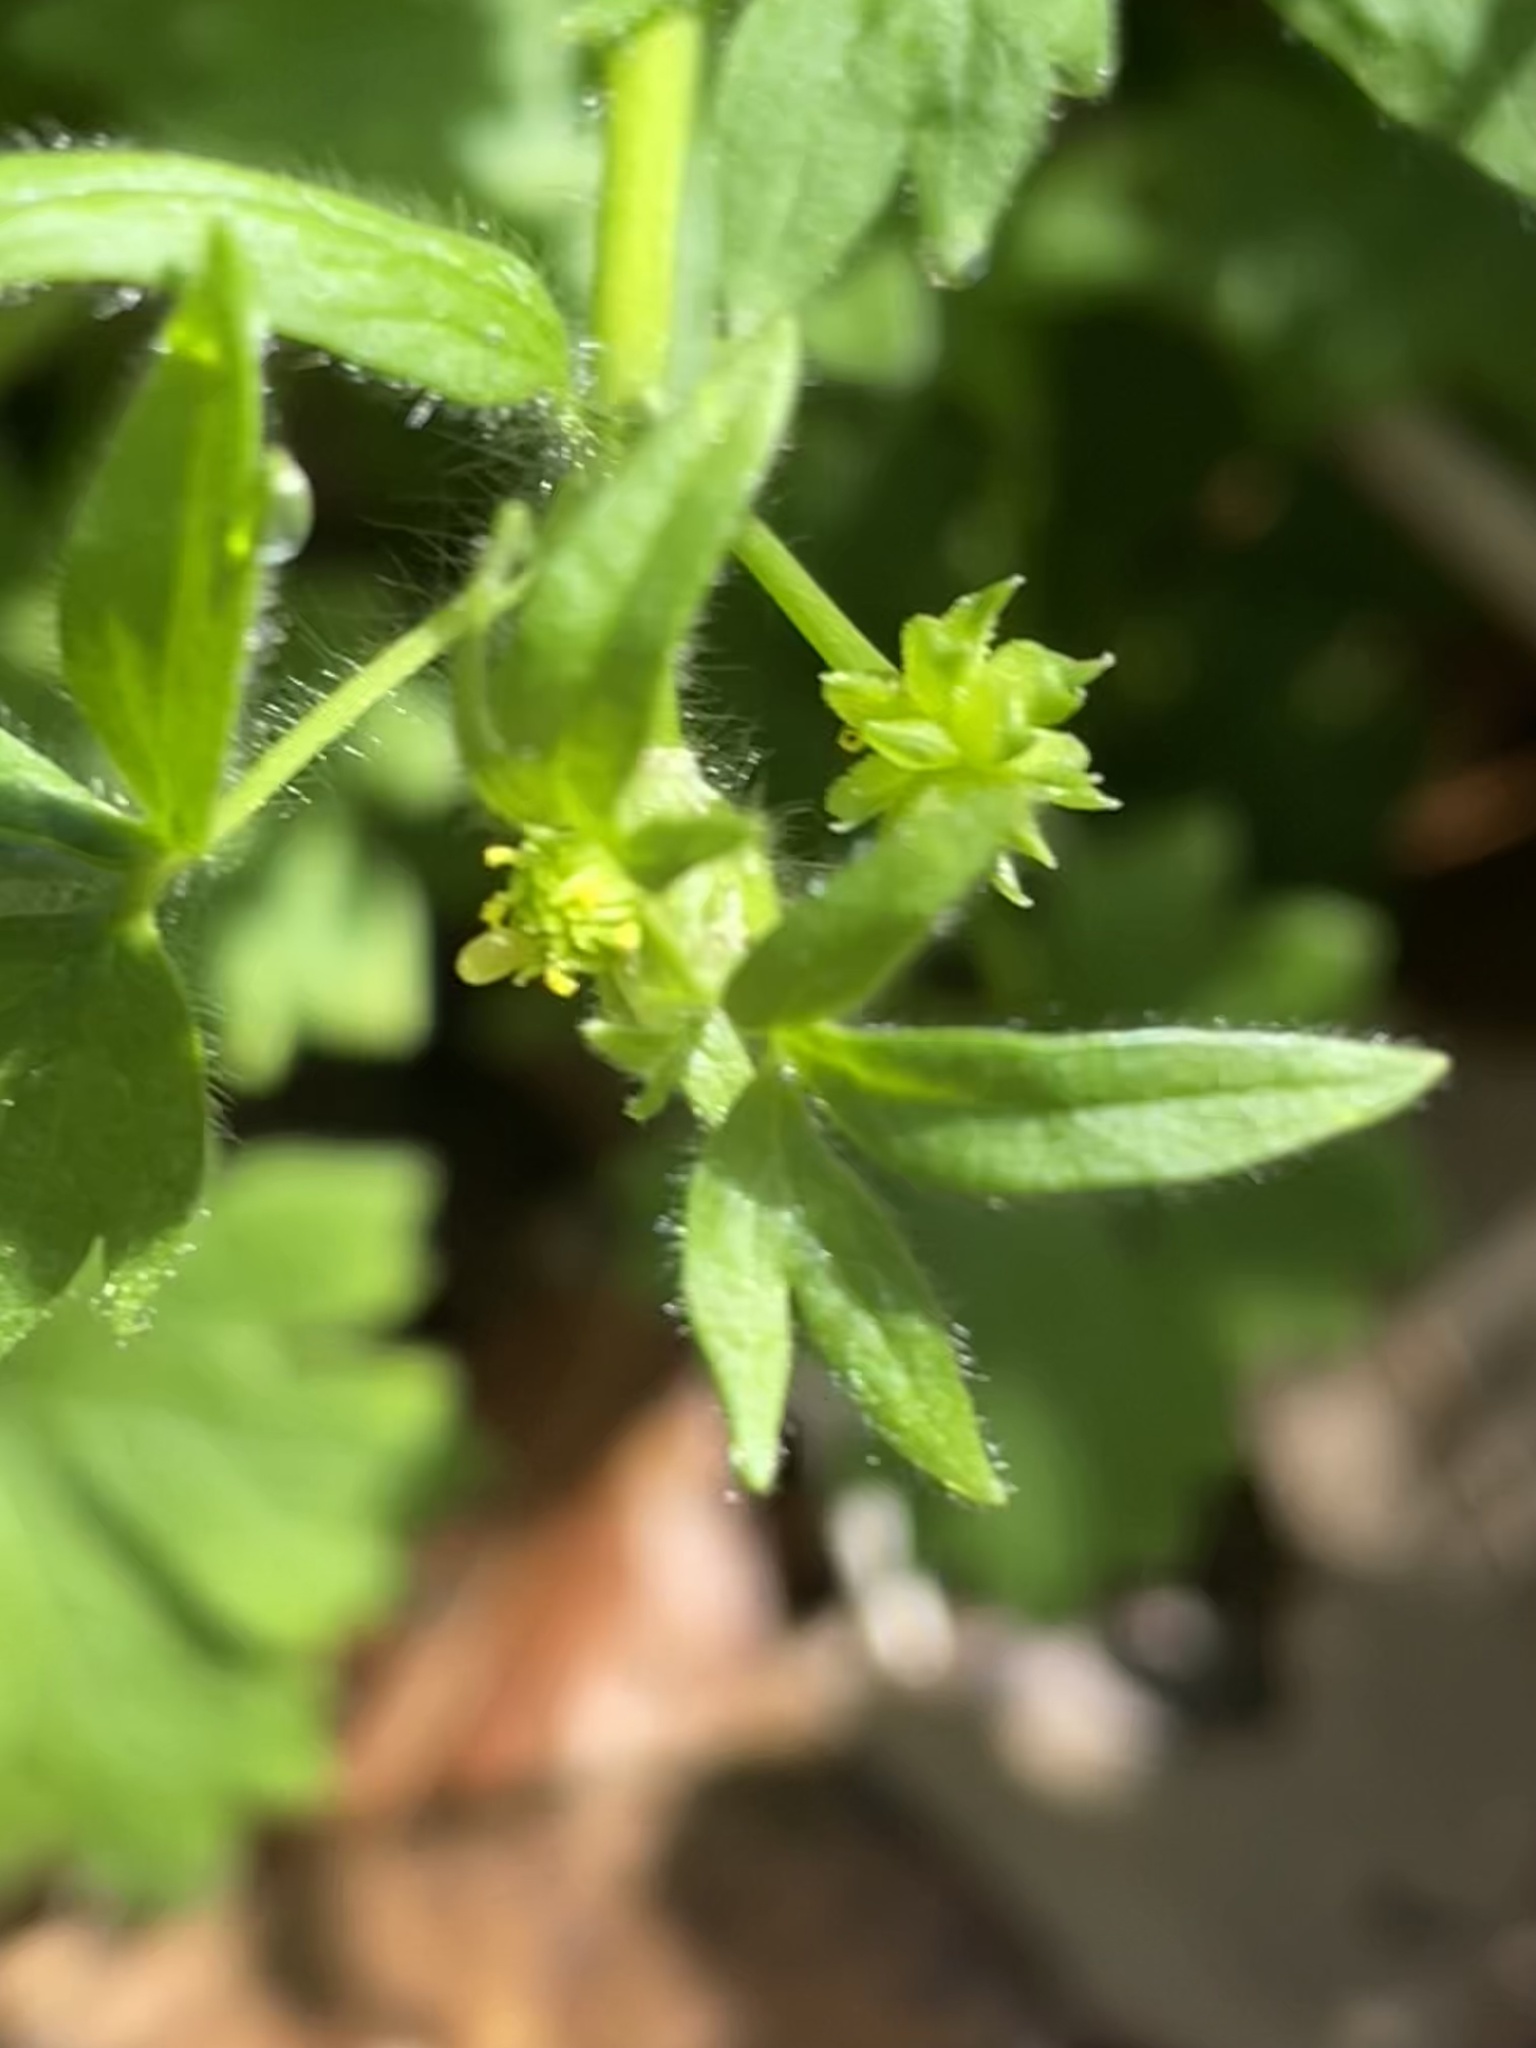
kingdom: Plantae
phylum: Tracheophyta
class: Magnoliopsida
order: Ranunculales
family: Ranunculaceae
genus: Ranunculus
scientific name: Ranunculus parviflorus
